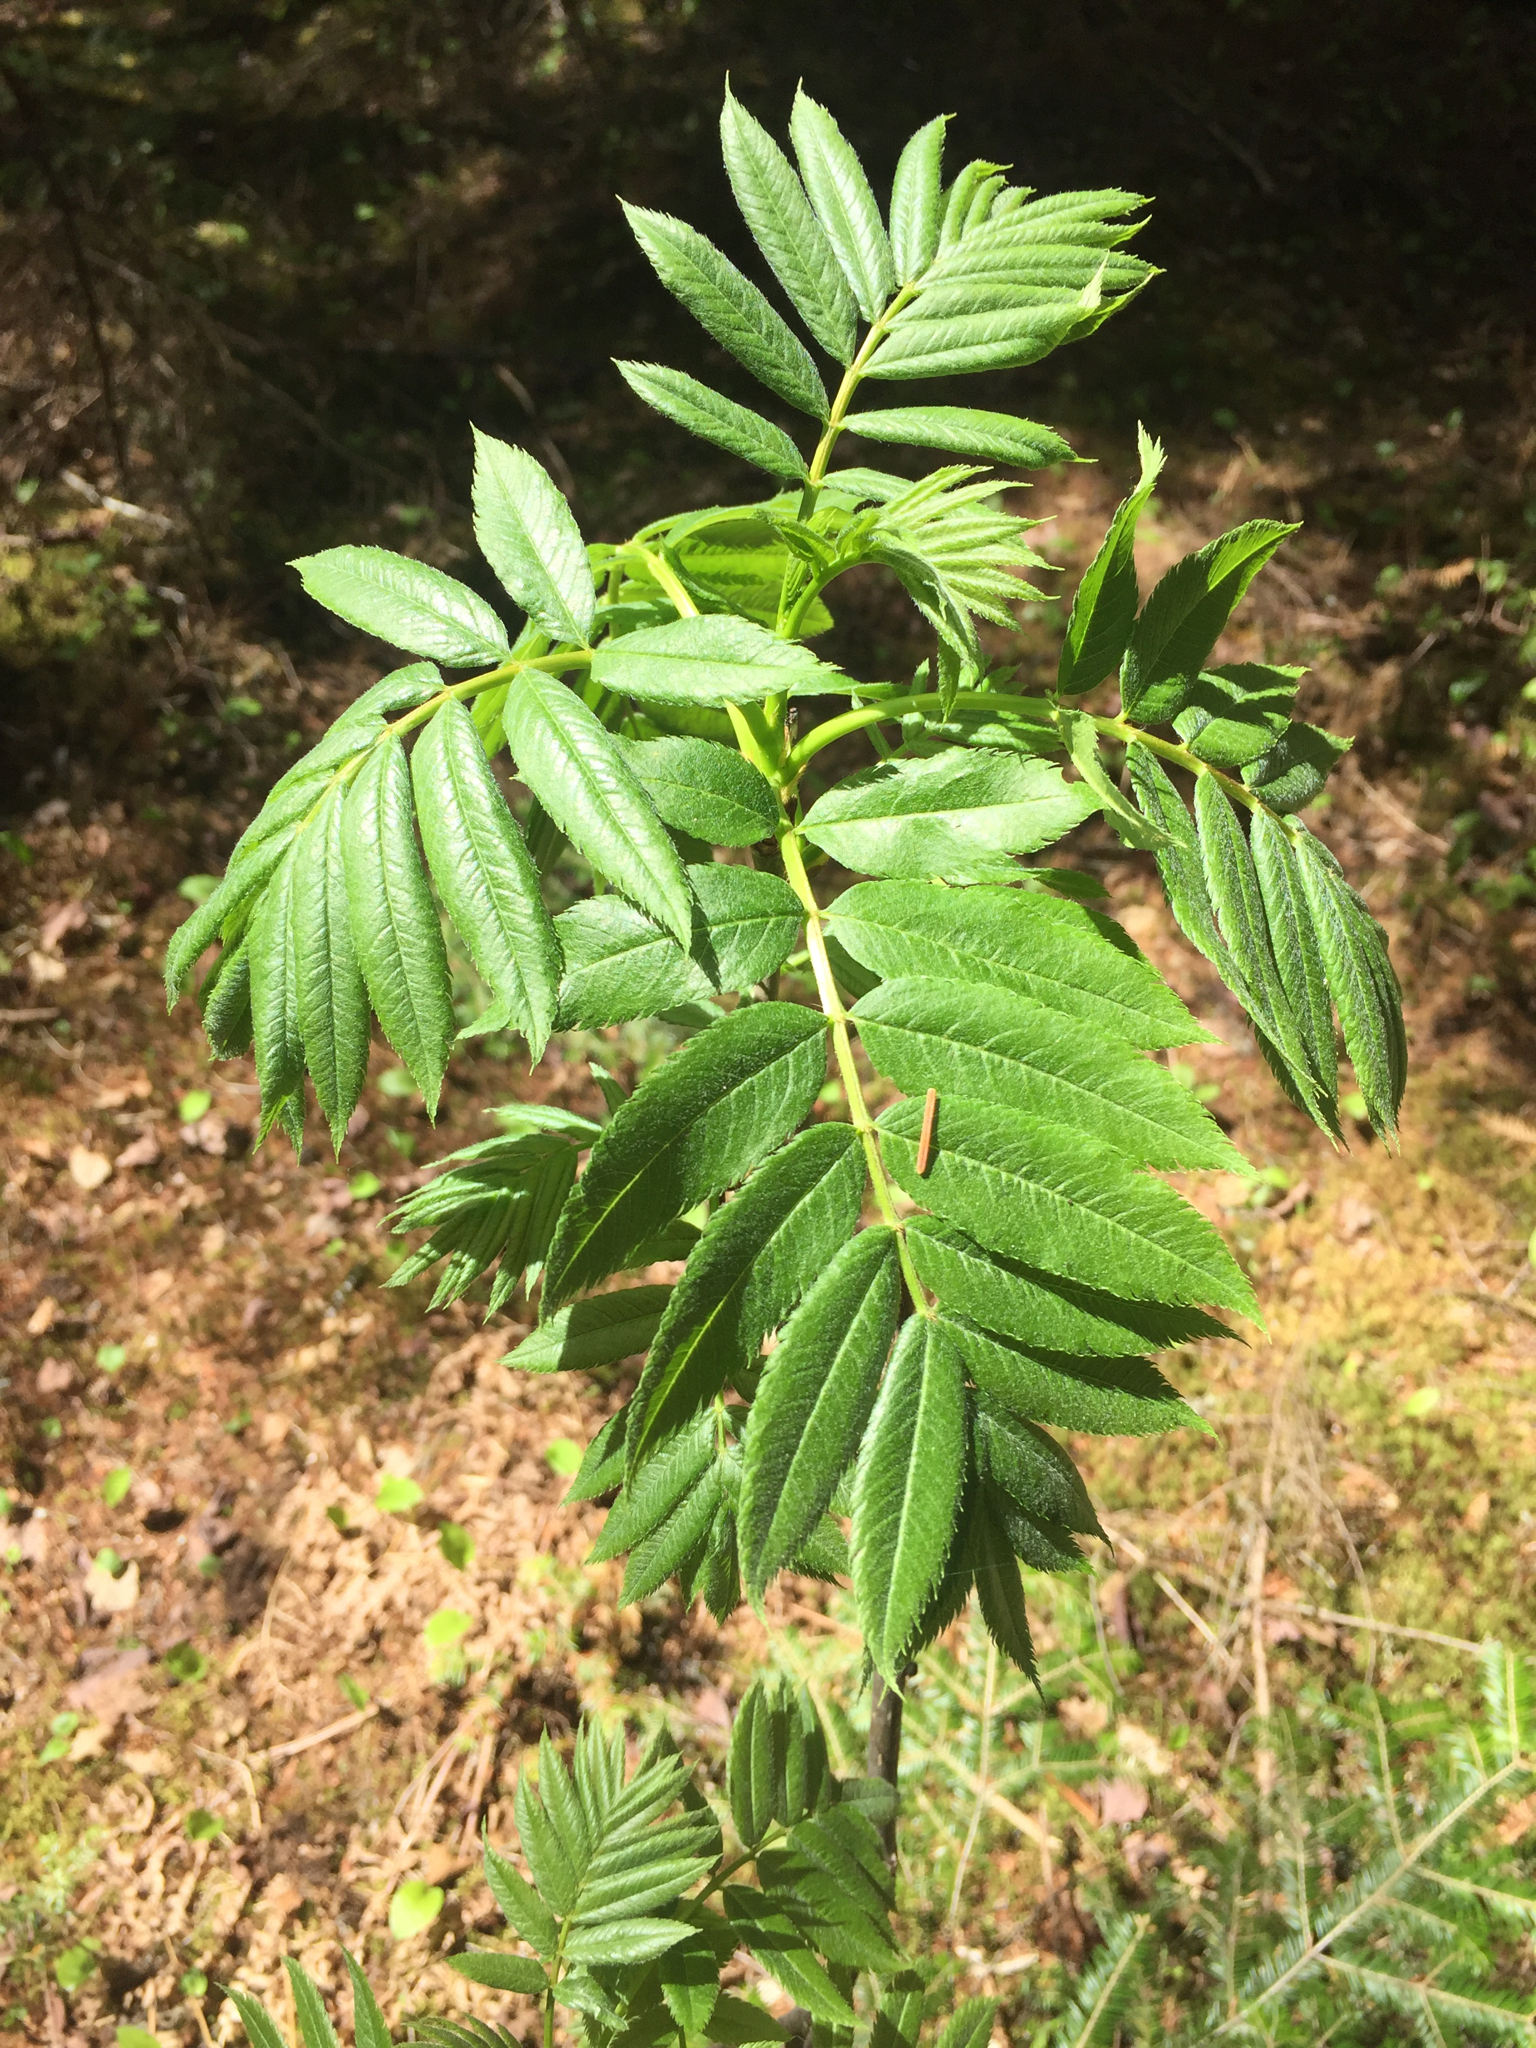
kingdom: Plantae
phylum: Tracheophyta
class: Magnoliopsida
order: Rosales
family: Rosaceae
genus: Sorbus
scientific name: Sorbus americana
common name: American mountain-ash
